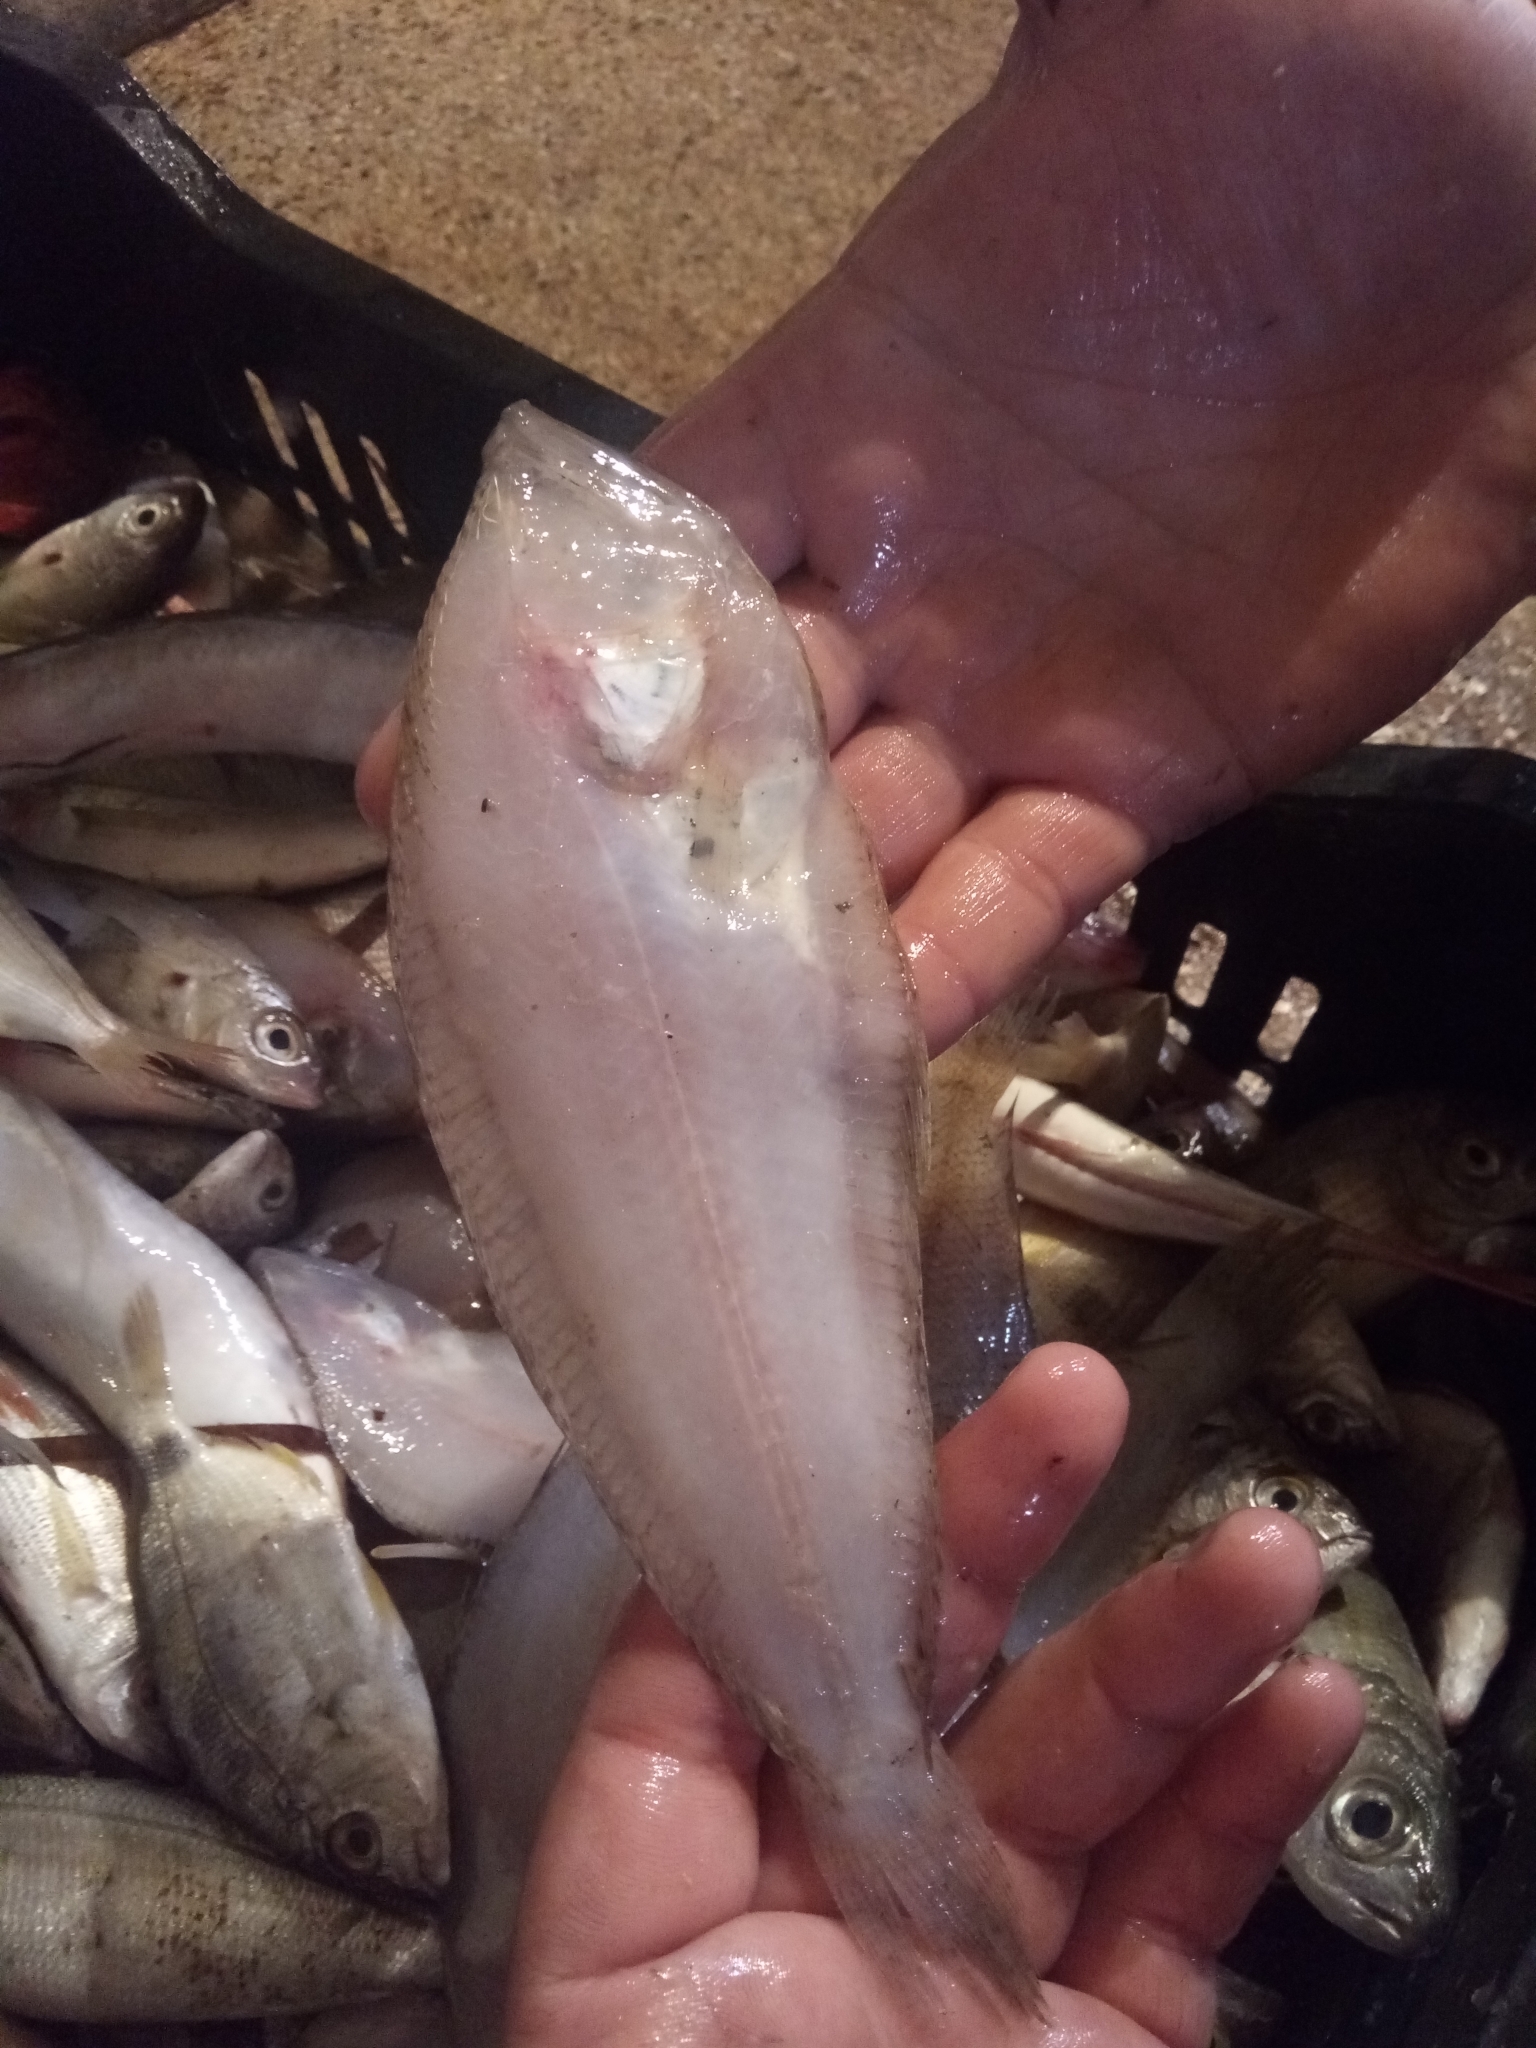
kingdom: Animalia
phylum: Chordata
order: Pleuronectiformes
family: Citharidae
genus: Citharus
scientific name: Citharus linguatula
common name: Atlantic spotted flounder
